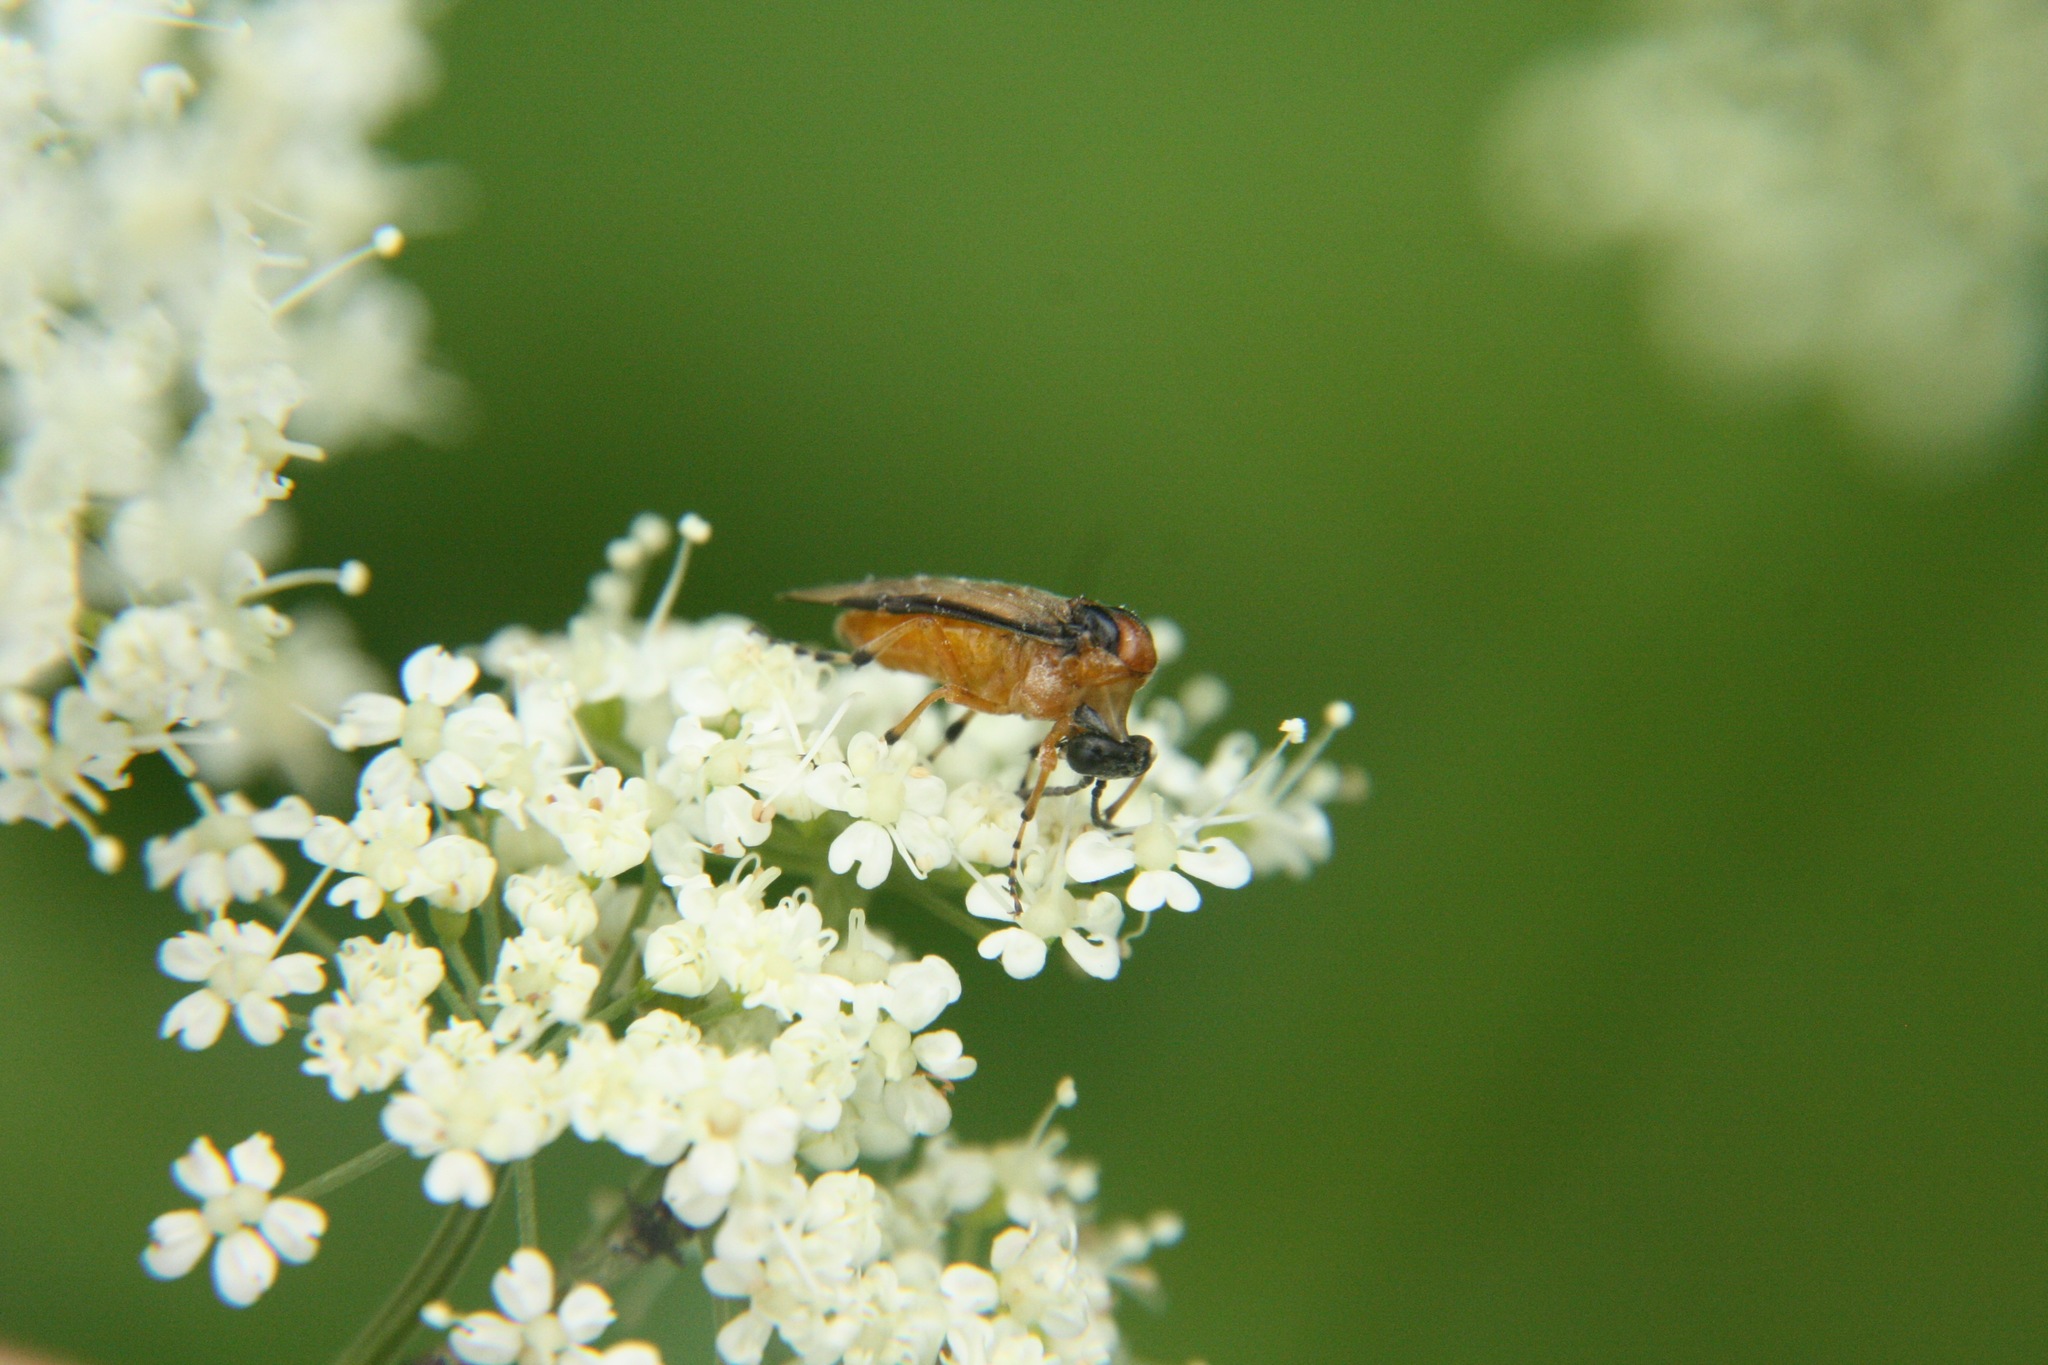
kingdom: Animalia
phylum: Arthropoda
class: Insecta
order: Hymenoptera
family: Tenthredinidae
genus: Athalia
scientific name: Athalia rosae
